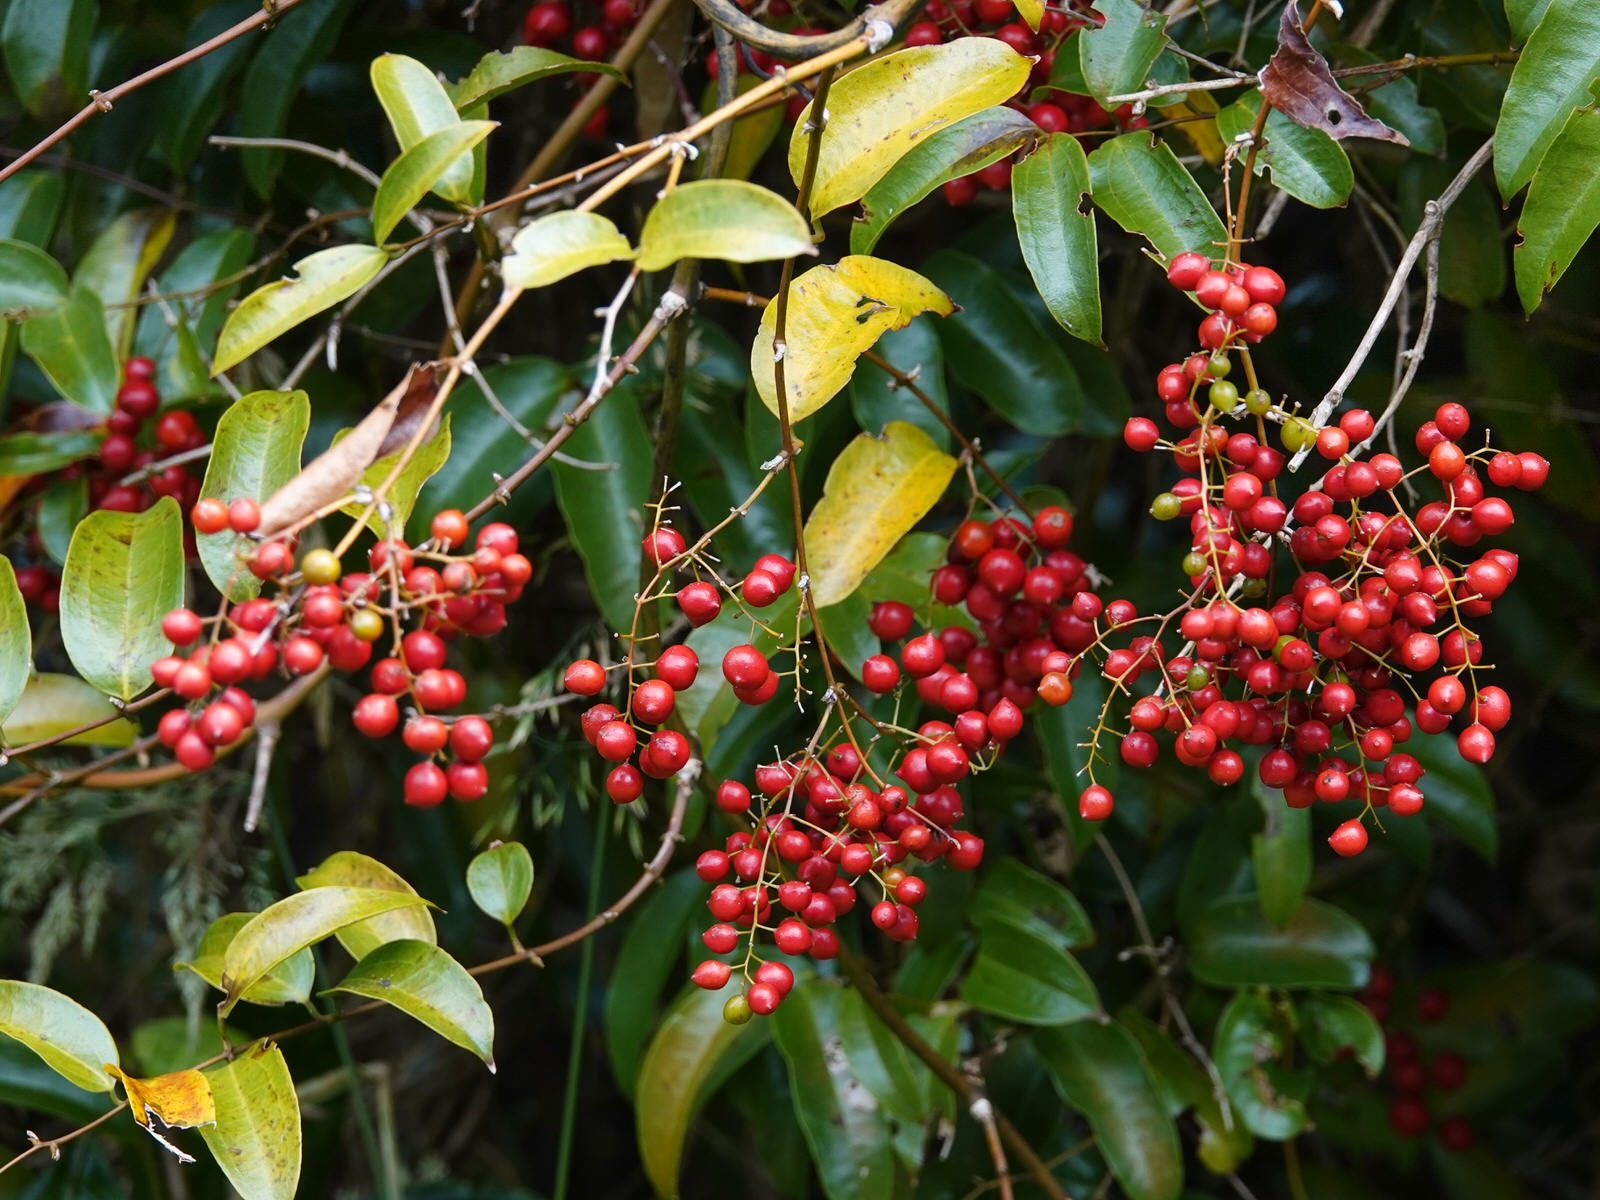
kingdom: Plantae
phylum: Tracheophyta
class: Liliopsida
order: Liliales
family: Ripogonaceae
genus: Ripogonum
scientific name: Ripogonum scandens
